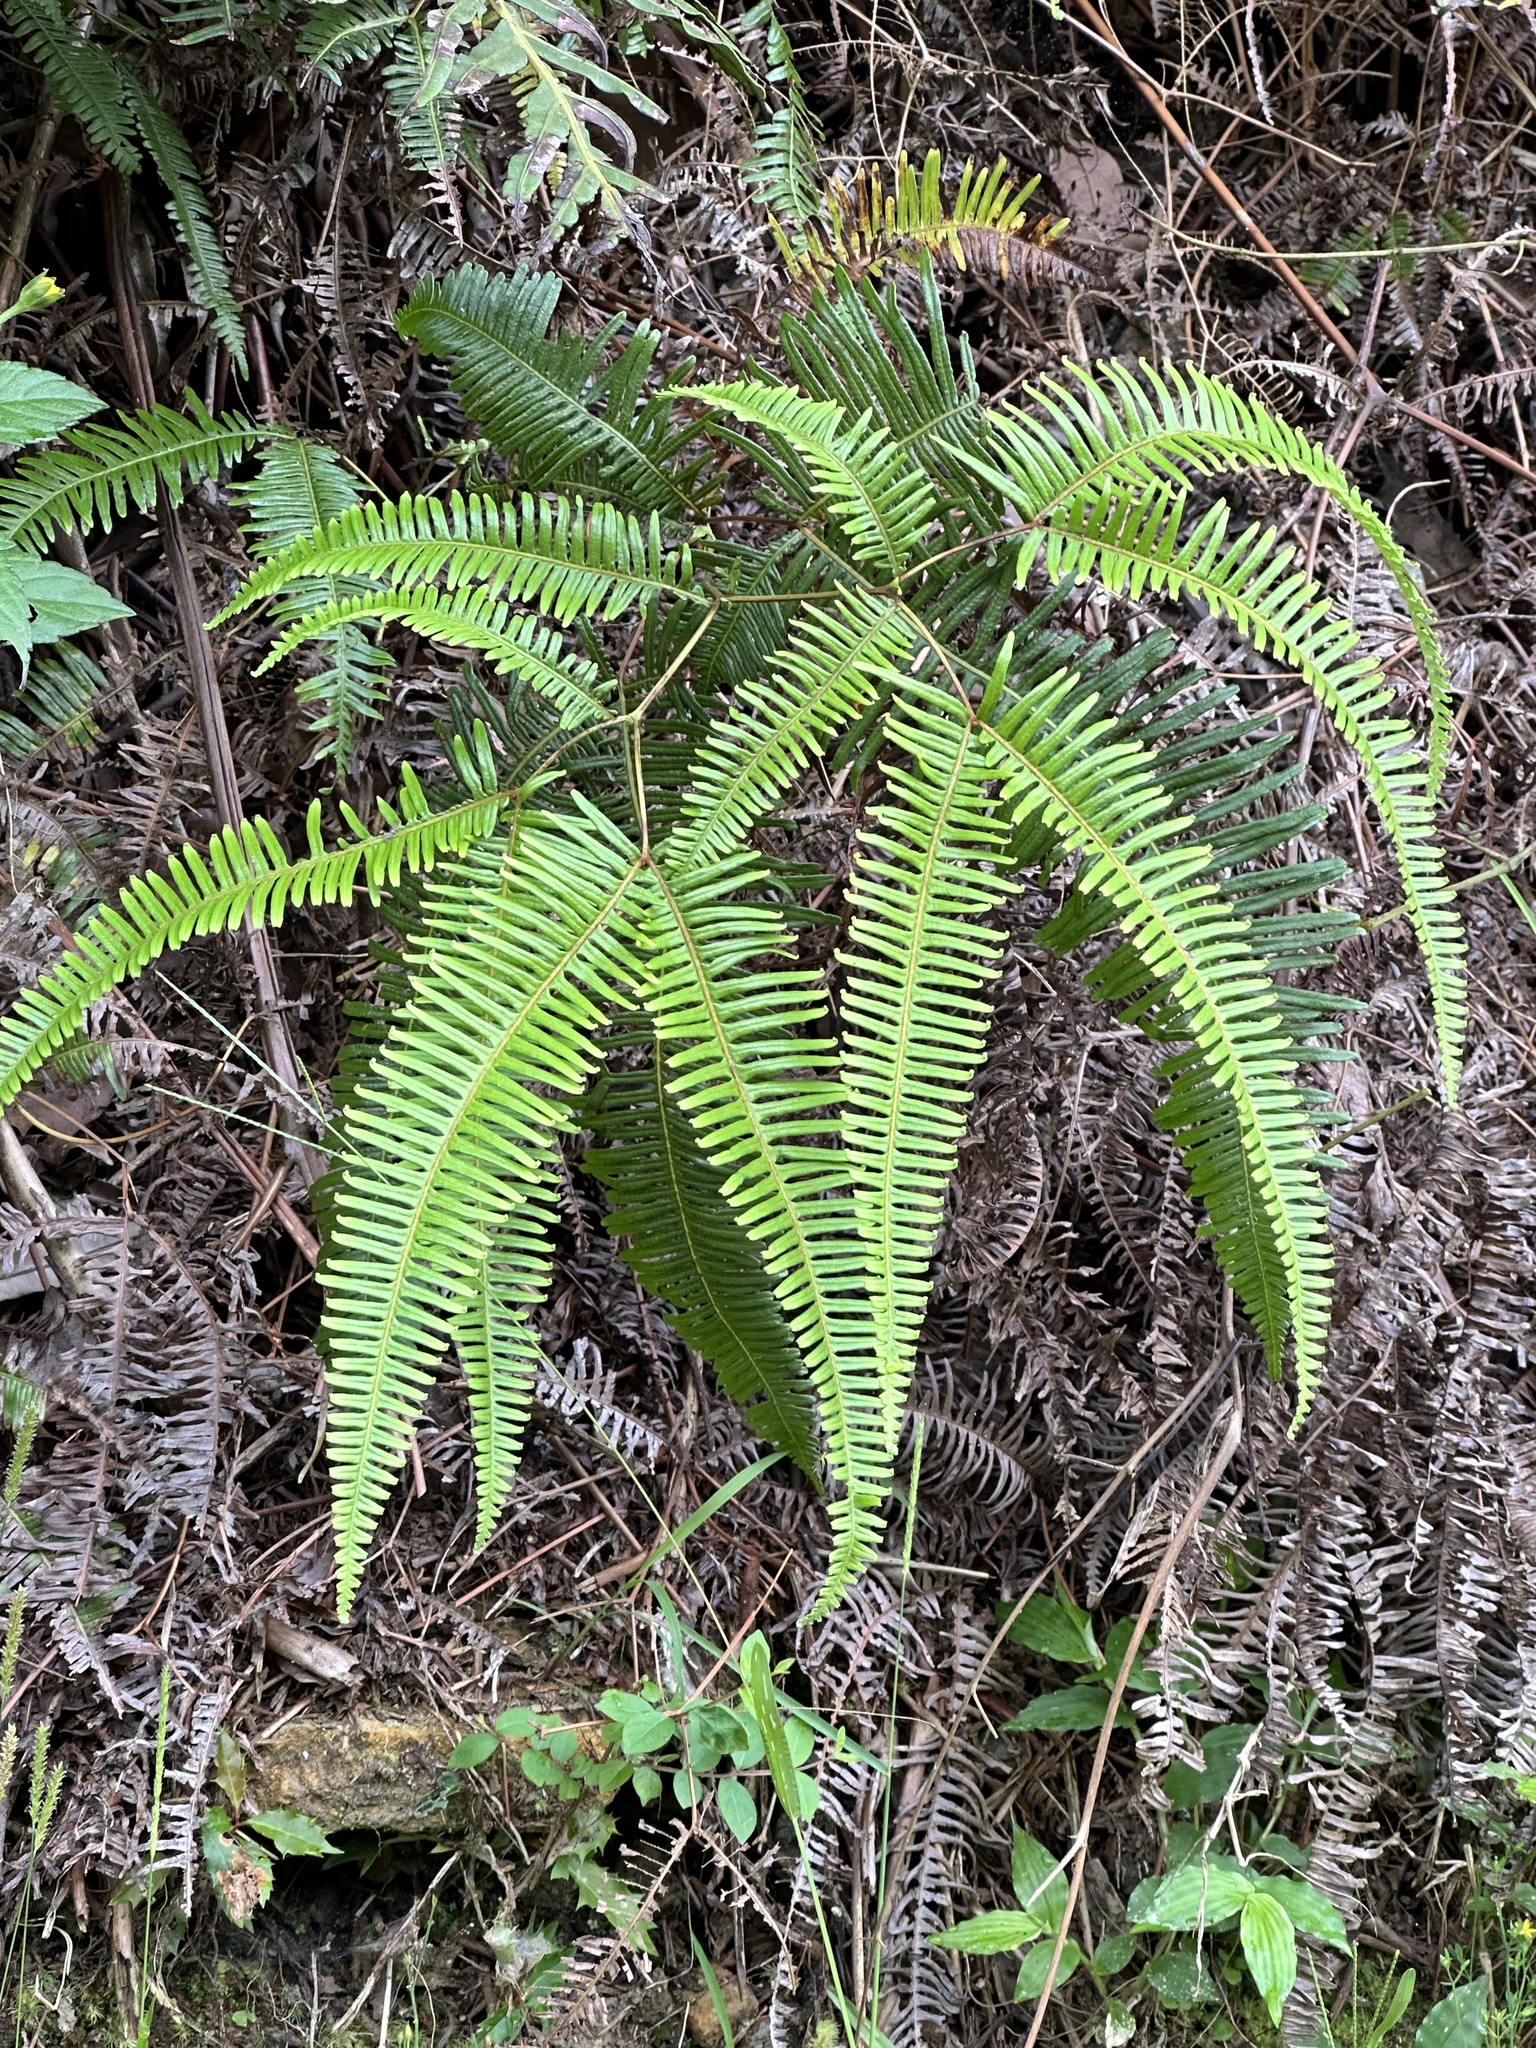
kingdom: Plantae
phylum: Tracheophyta
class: Polypodiopsida
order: Gleicheniales
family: Gleicheniaceae
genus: Dicranopteris
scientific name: Dicranopteris linearis
